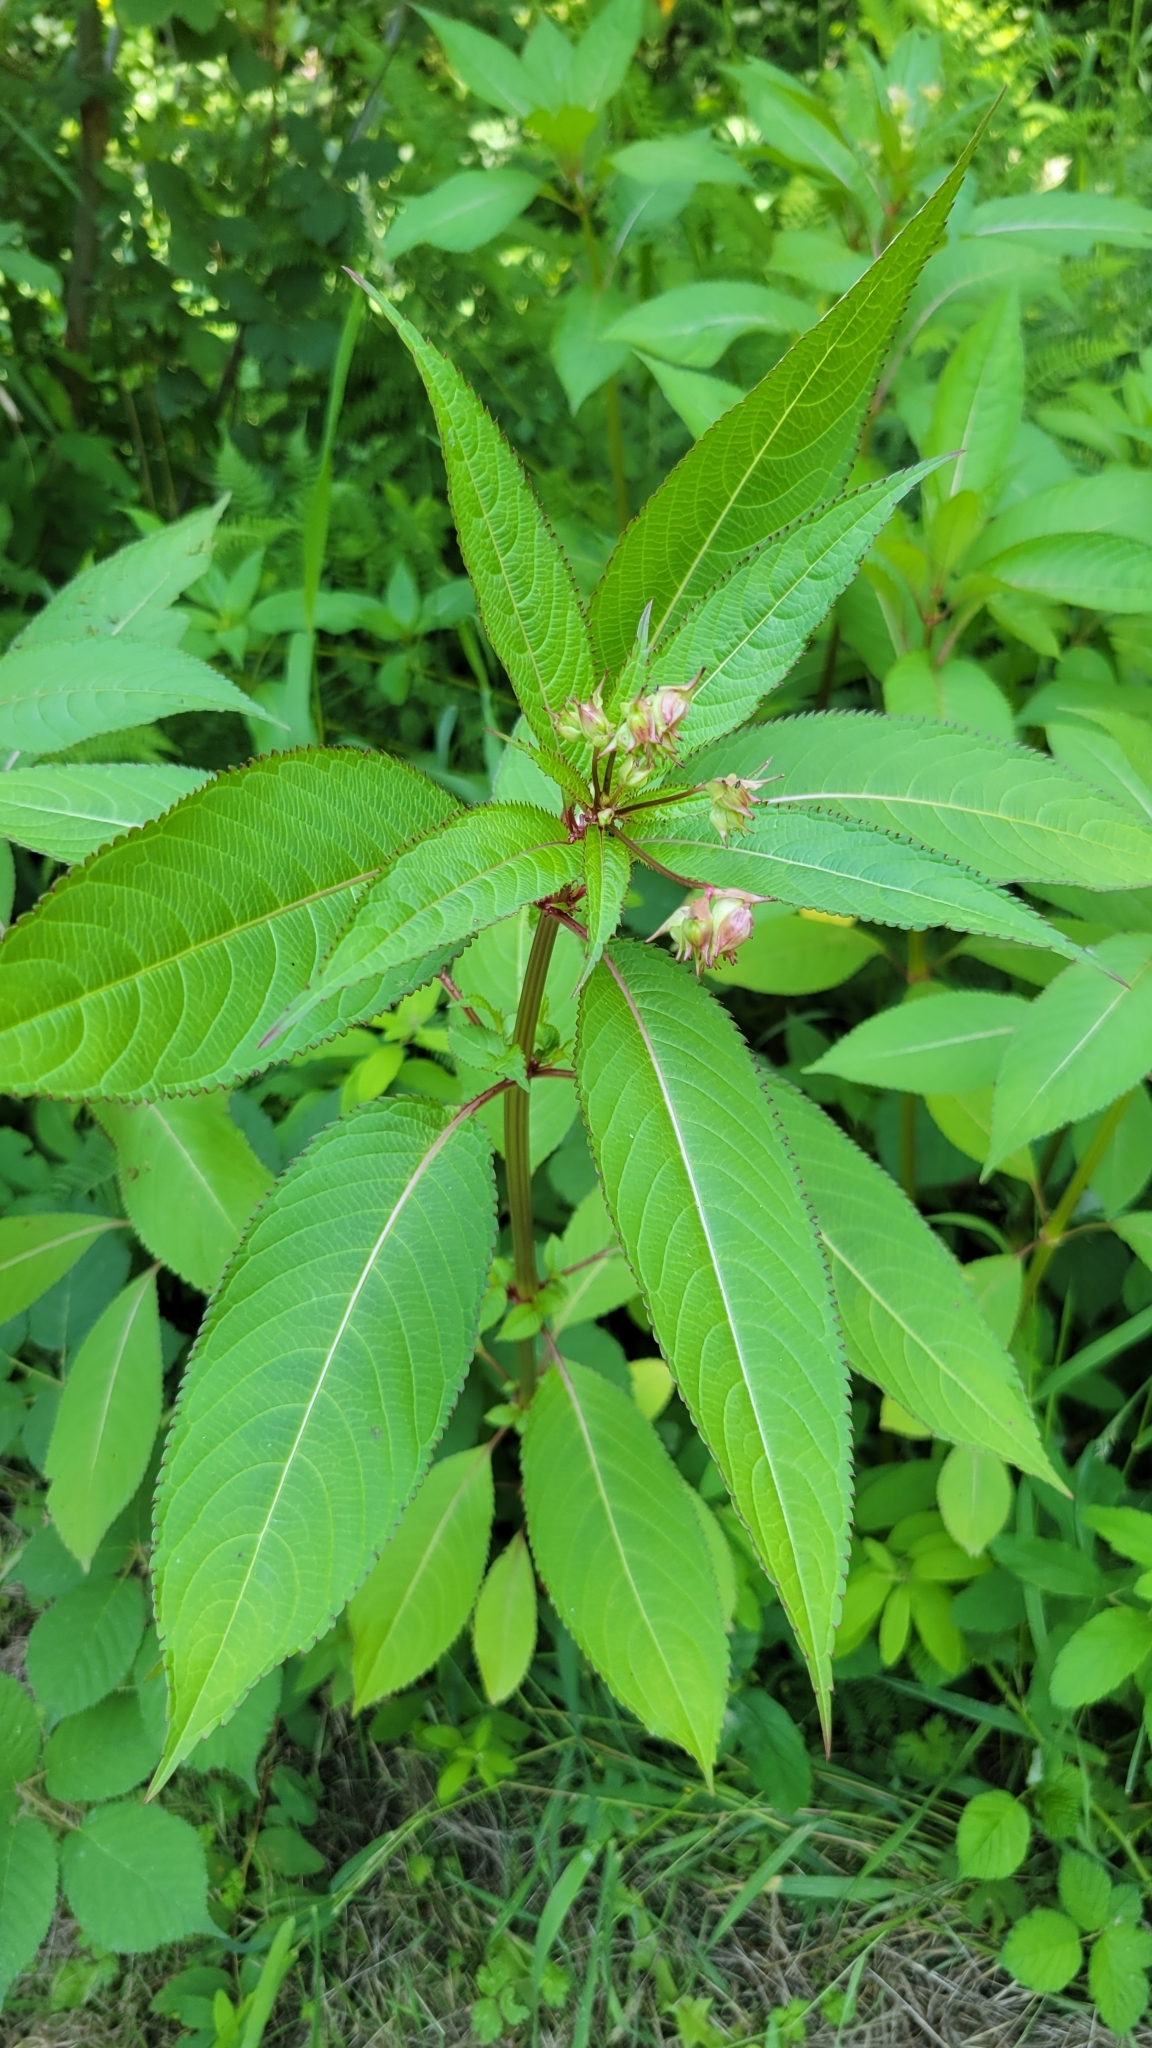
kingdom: Plantae
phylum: Tracheophyta
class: Magnoliopsida
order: Ericales
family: Balsaminaceae
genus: Impatiens
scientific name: Impatiens glandulifera
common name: Himalayan balsam
